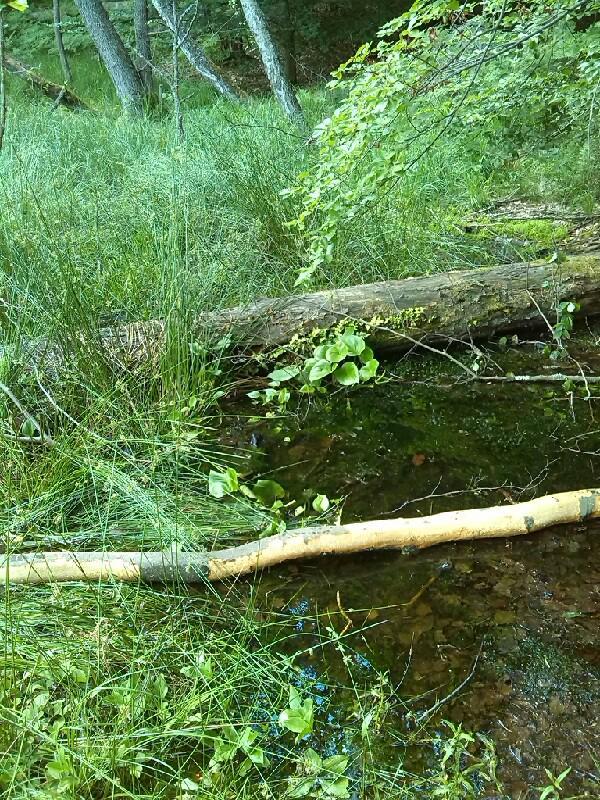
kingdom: Plantae
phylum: Tracheophyta
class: Liliopsida
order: Alismatales
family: Araceae
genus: Calla
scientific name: Calla palustris
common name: Bog arum
